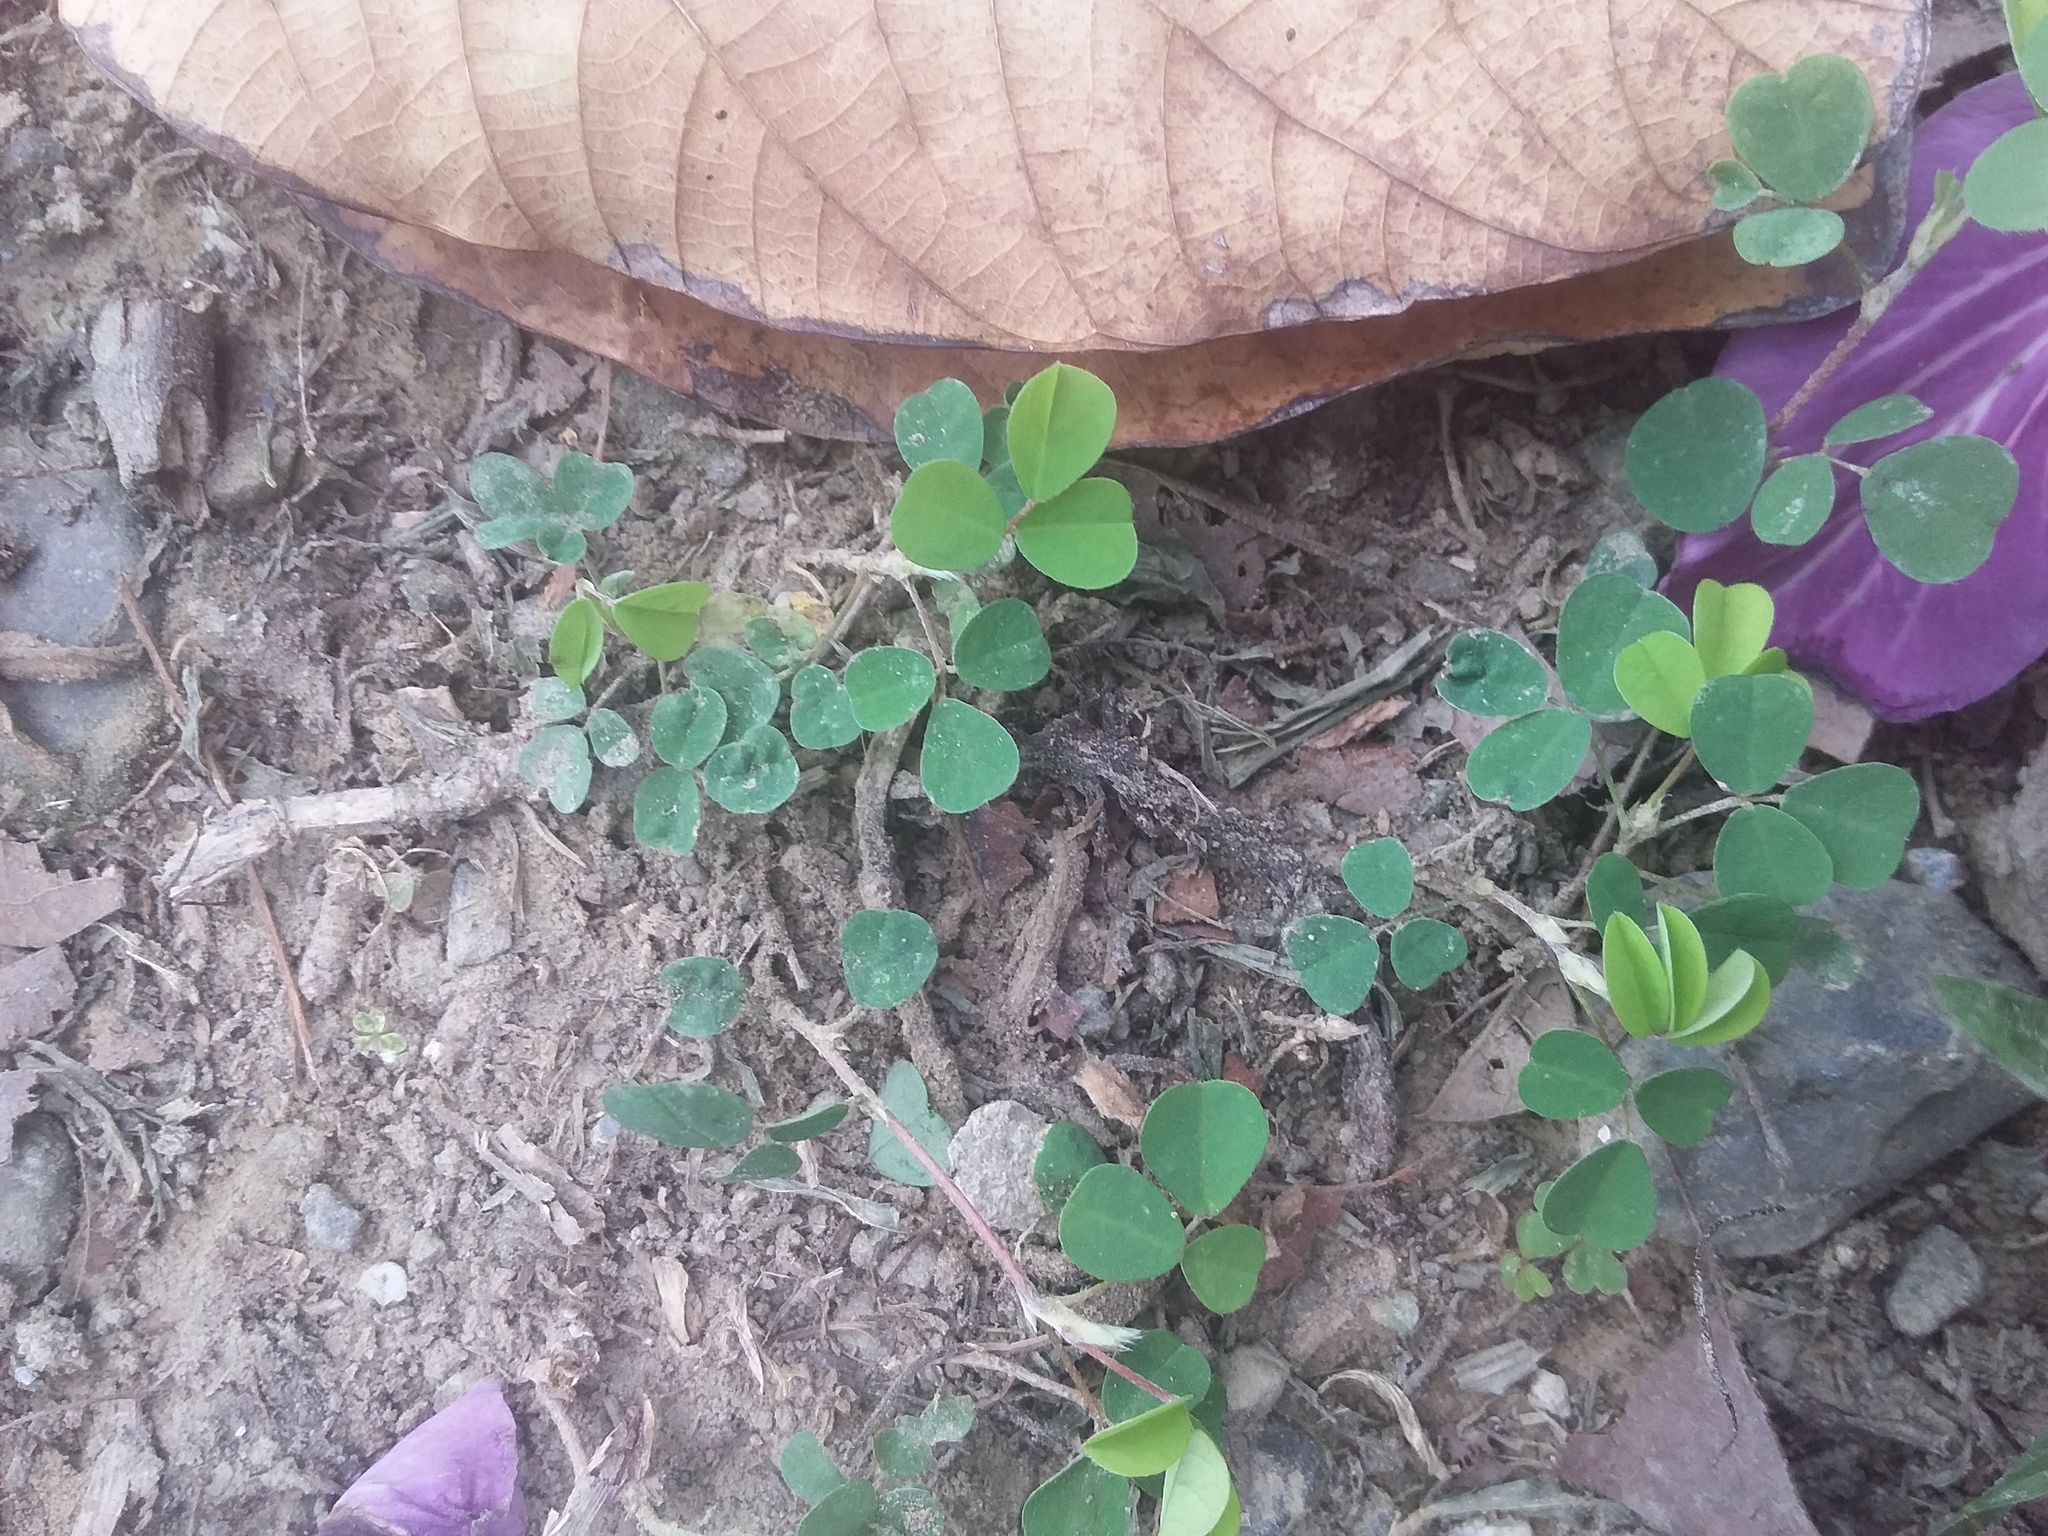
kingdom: Plantae
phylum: Tracheophyta
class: Magnoliopsida
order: Fabales
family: Fabaceae
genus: Grona
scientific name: Grona triflora
